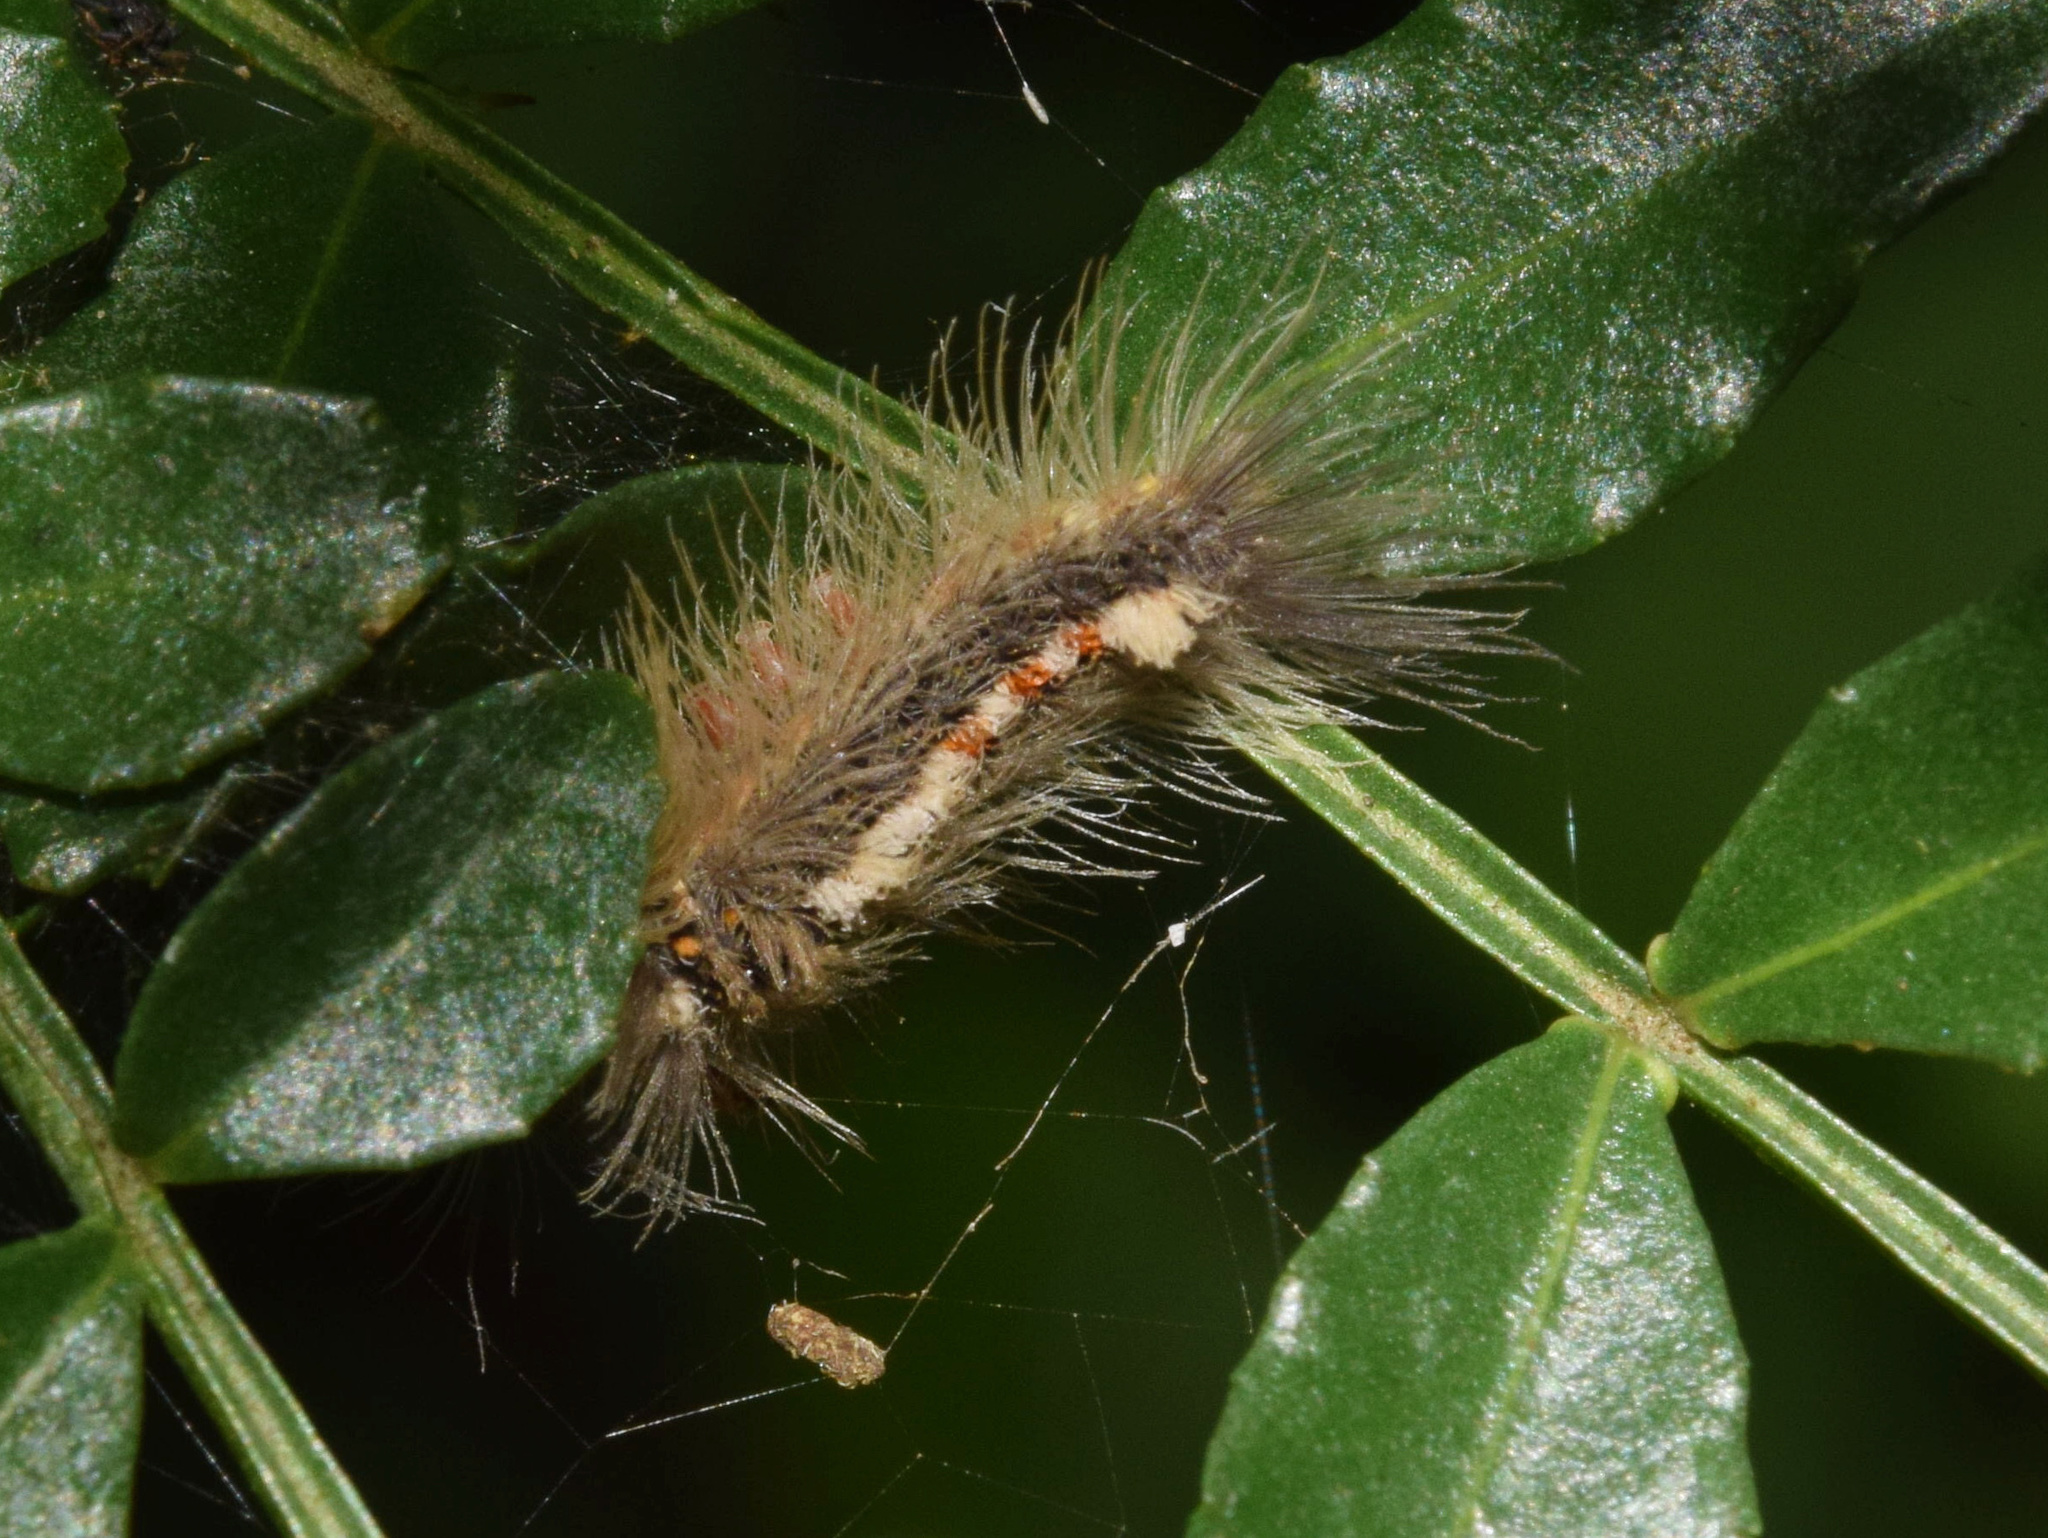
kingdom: Animalia
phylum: Arthropoda
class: Insecta
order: Lepidoptera
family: Erebidae
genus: Euproctis
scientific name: Euproctis punctifera
